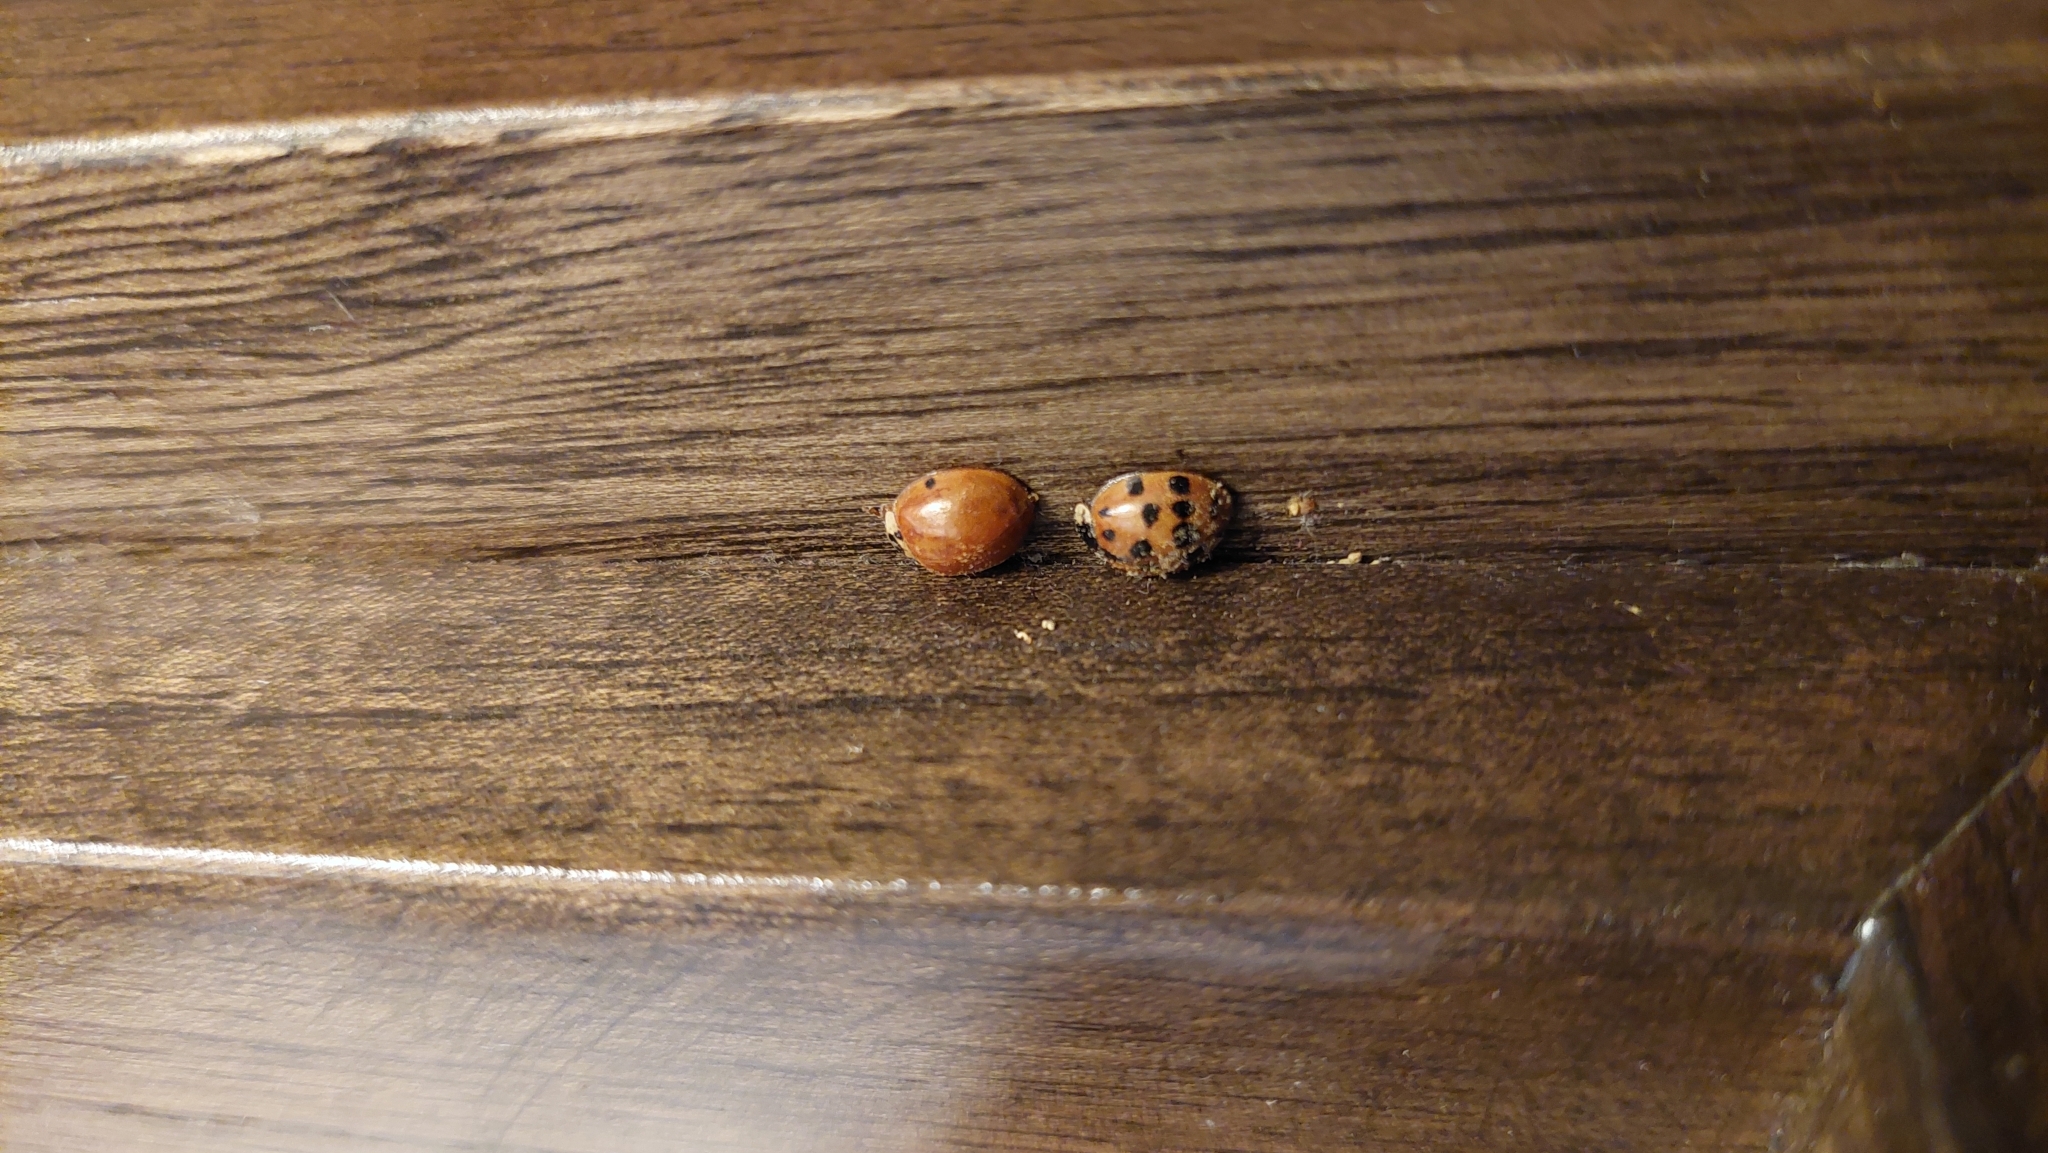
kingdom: Animalia
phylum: Arthropoda
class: Insecta
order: Coleoptera
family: Coccinellidae
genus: Harmonia
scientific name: Harmonia axyridis
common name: Harlequin ladybird
